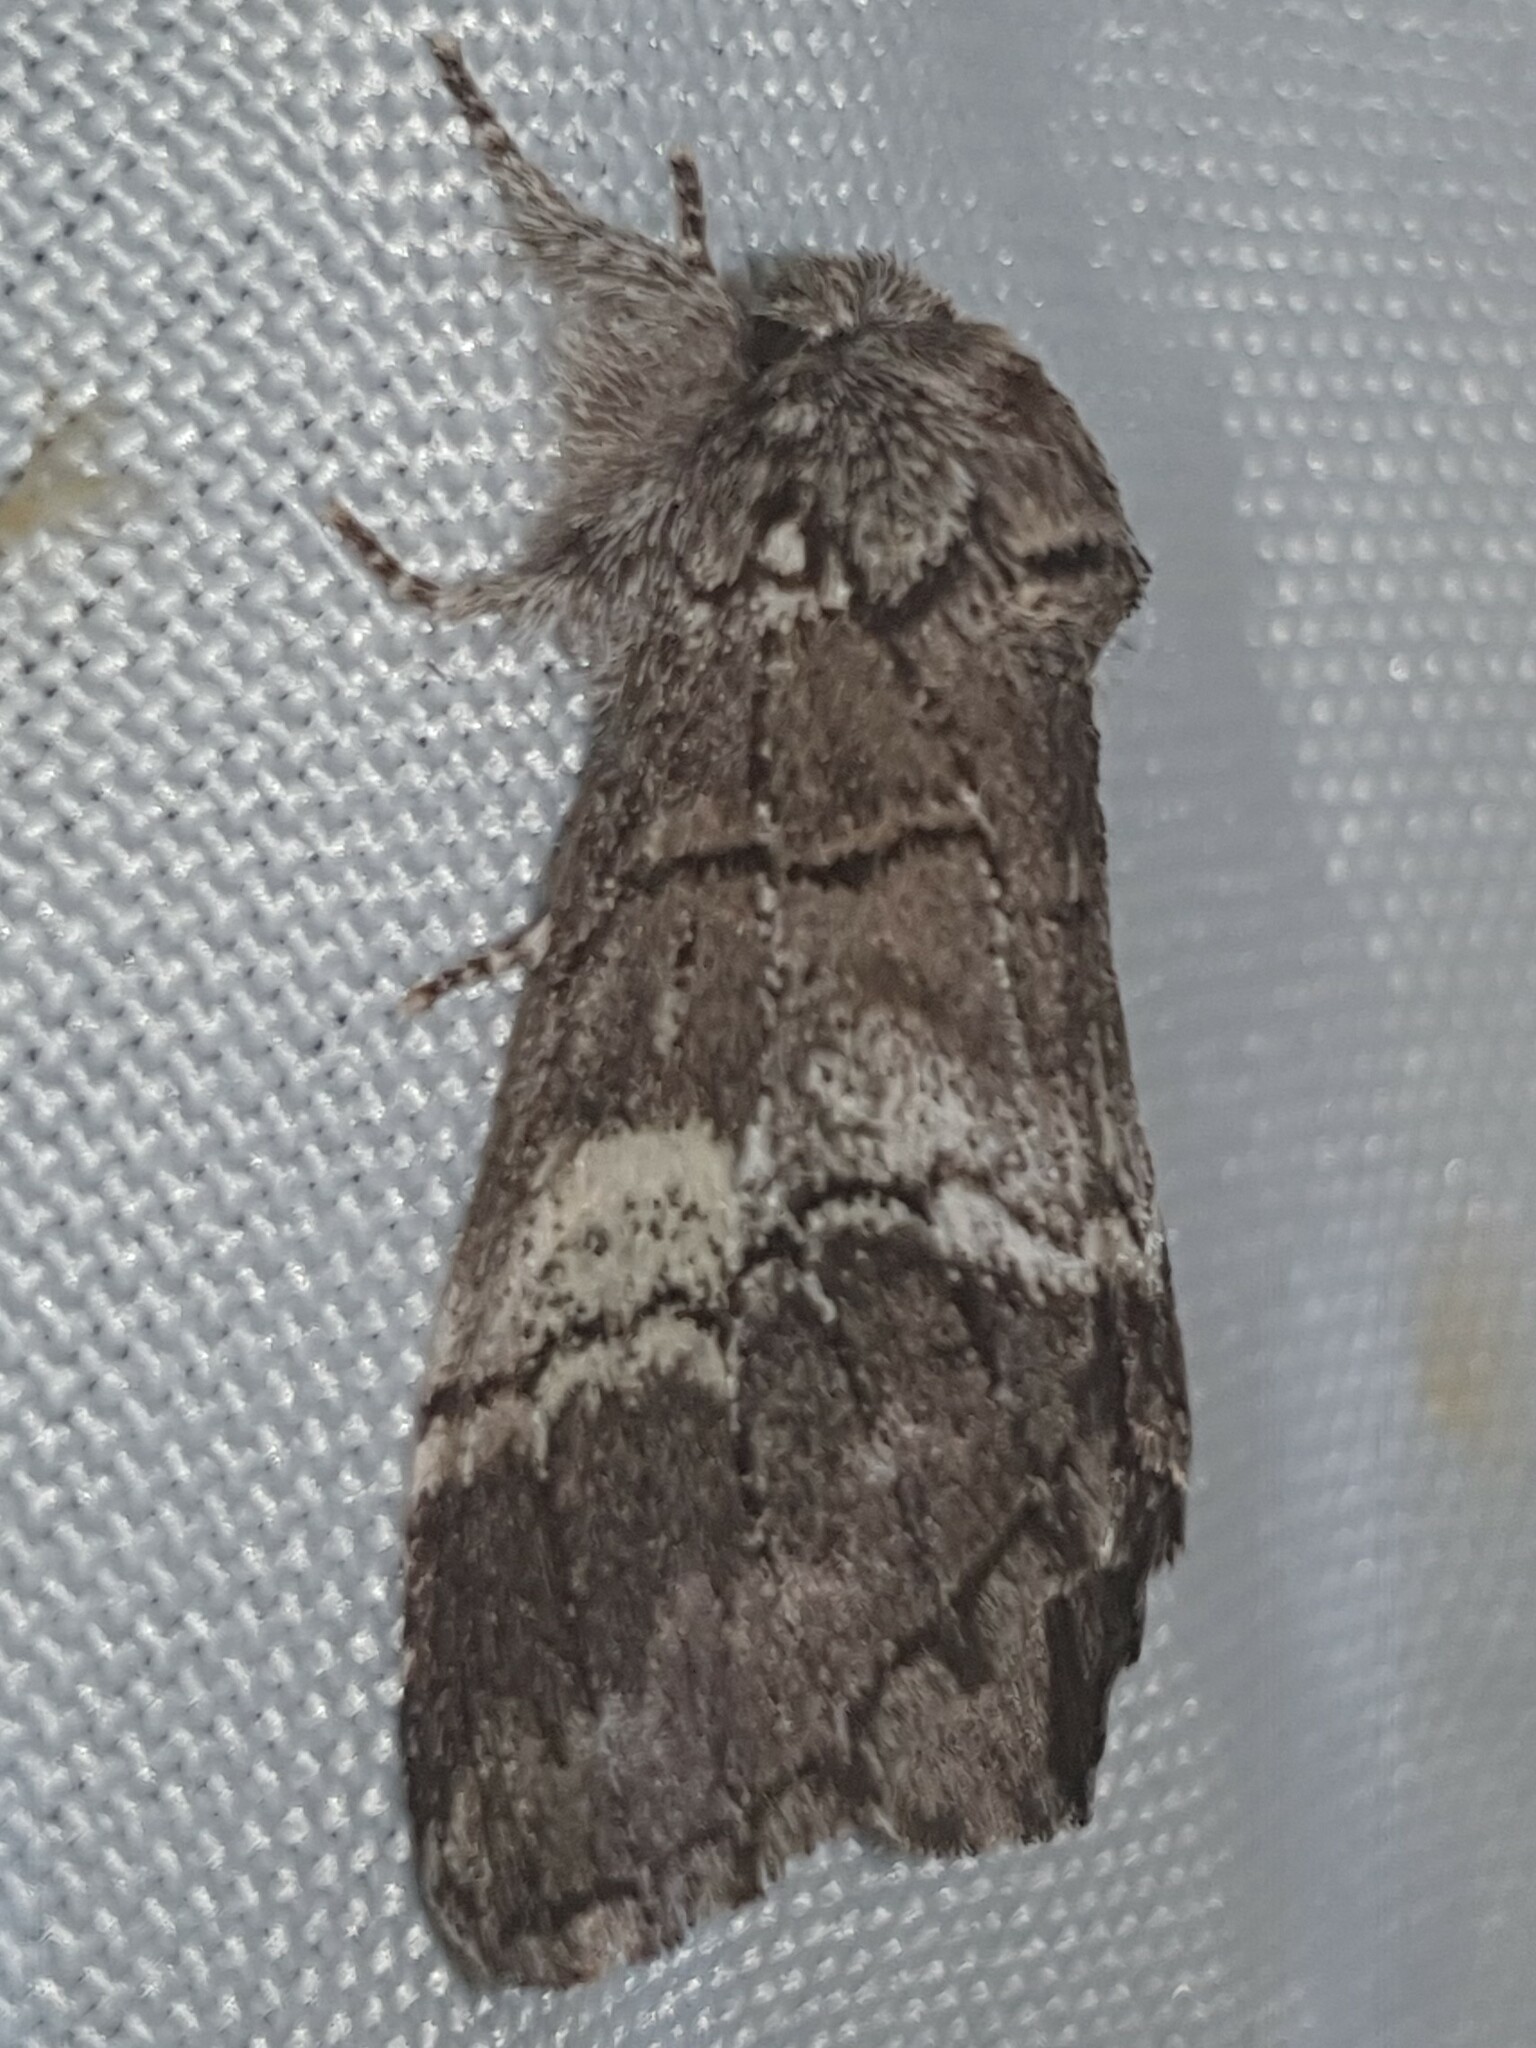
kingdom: Animalia
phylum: Arthropoda
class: Insecta
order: Lepidoptera
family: Notodontidae
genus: Drymonia
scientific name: Drymonia querna
